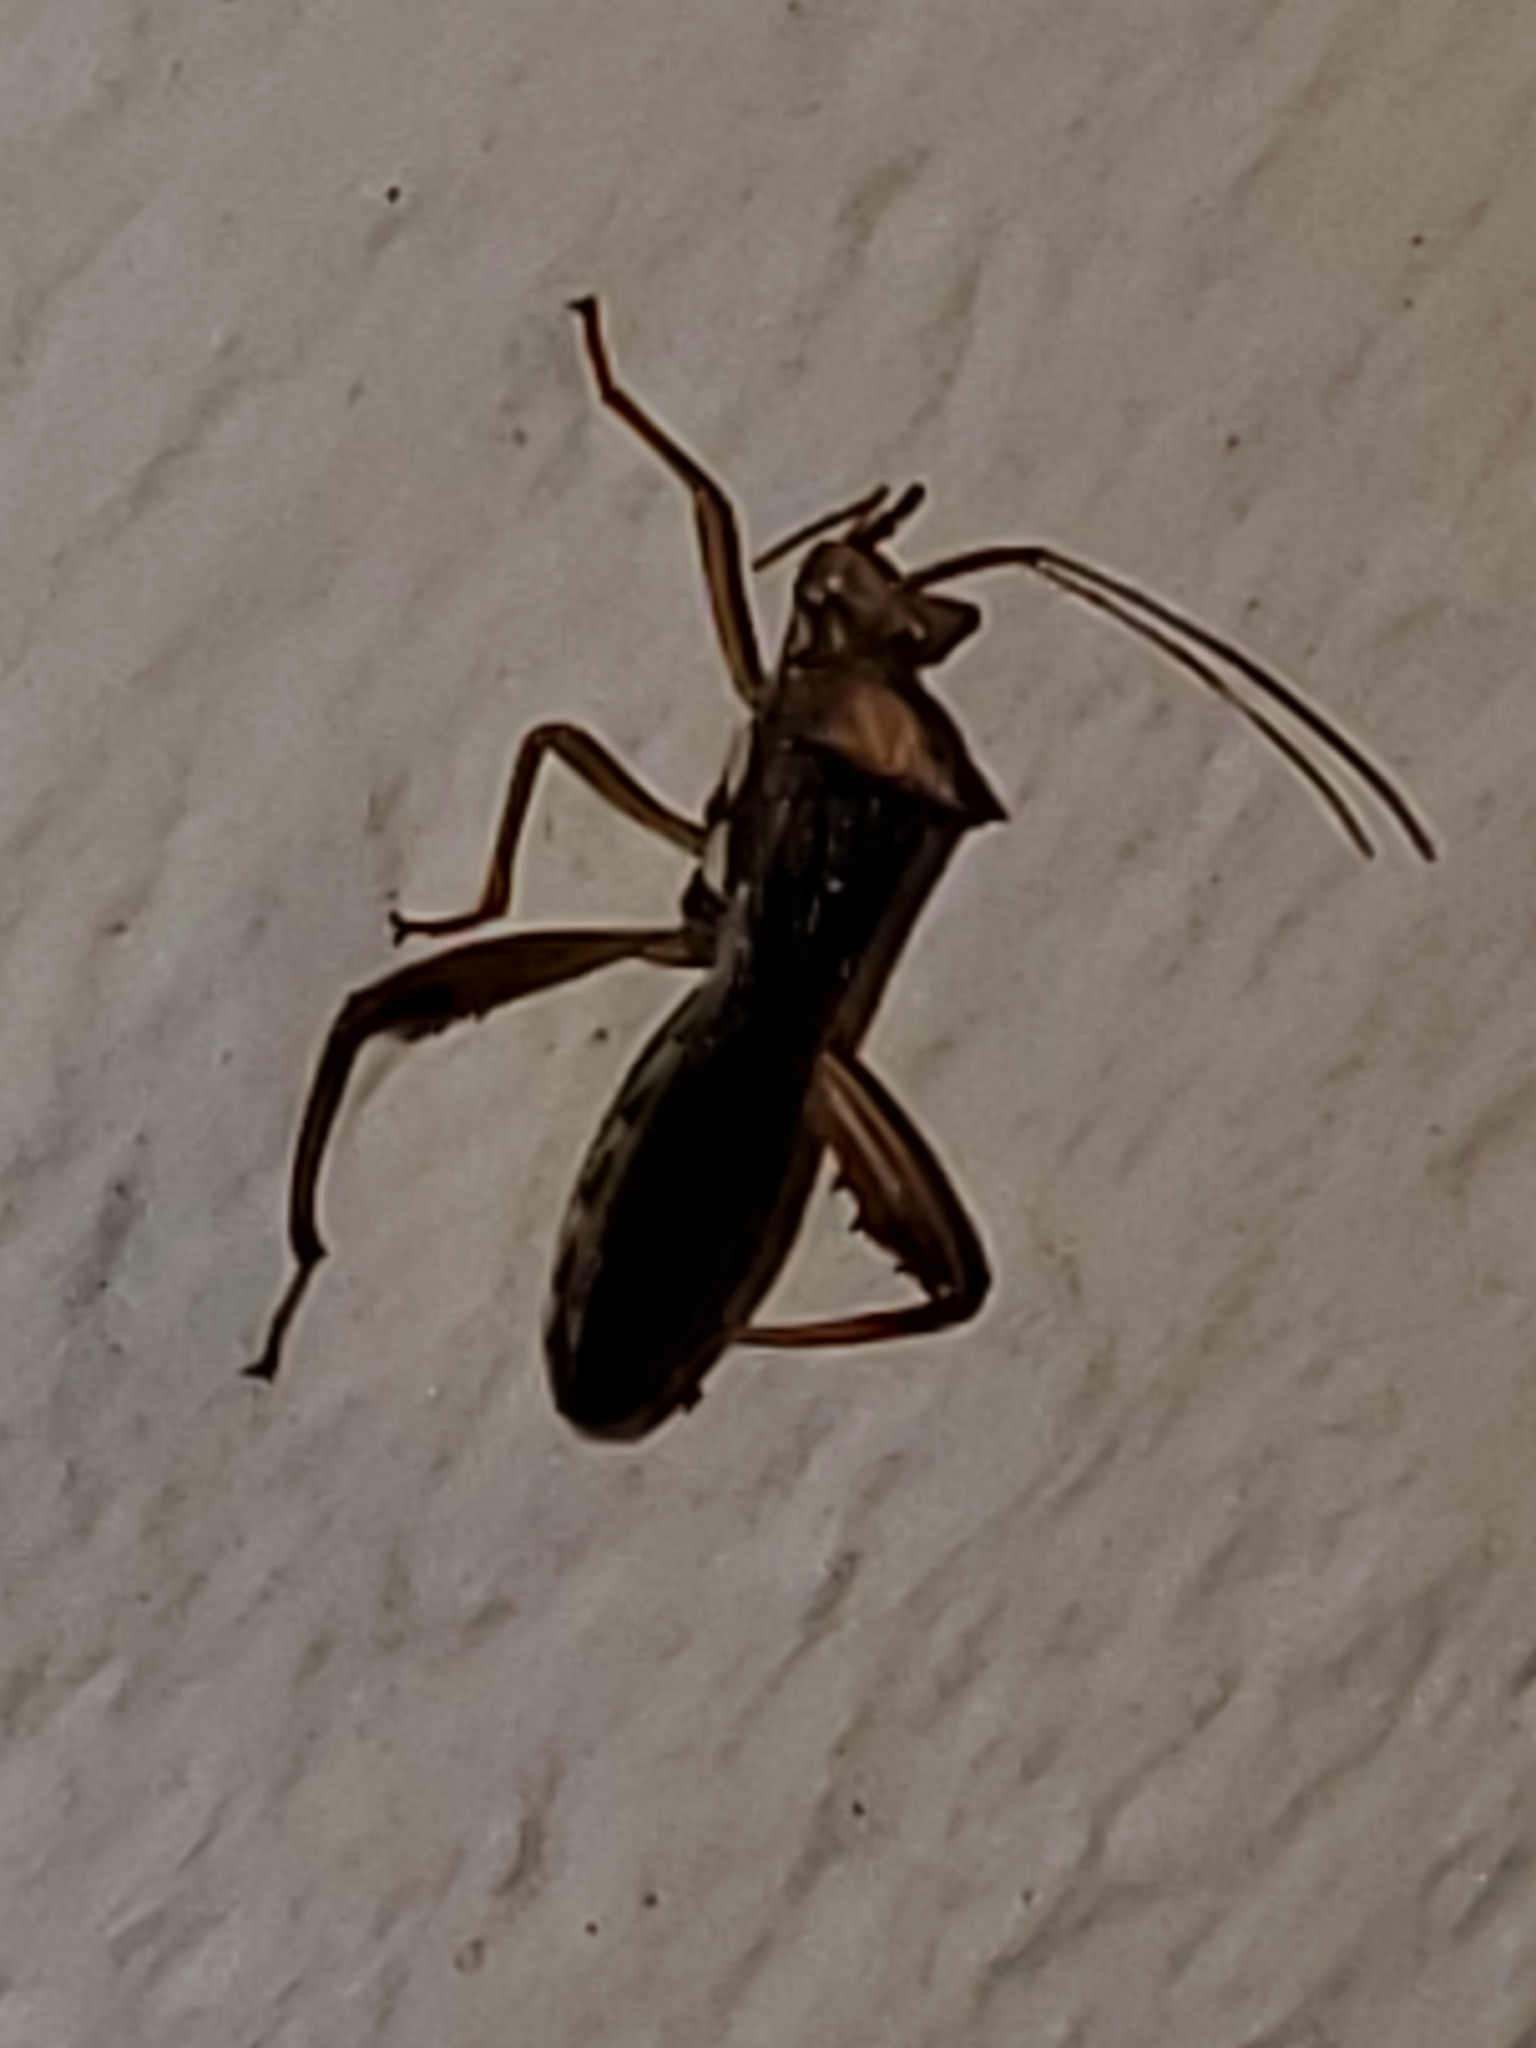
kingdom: Animalia
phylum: Arthropoda
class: Insecta
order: Hemiptera
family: Alydidae
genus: Hyalymenus
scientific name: Hyalymenus tarsatus
